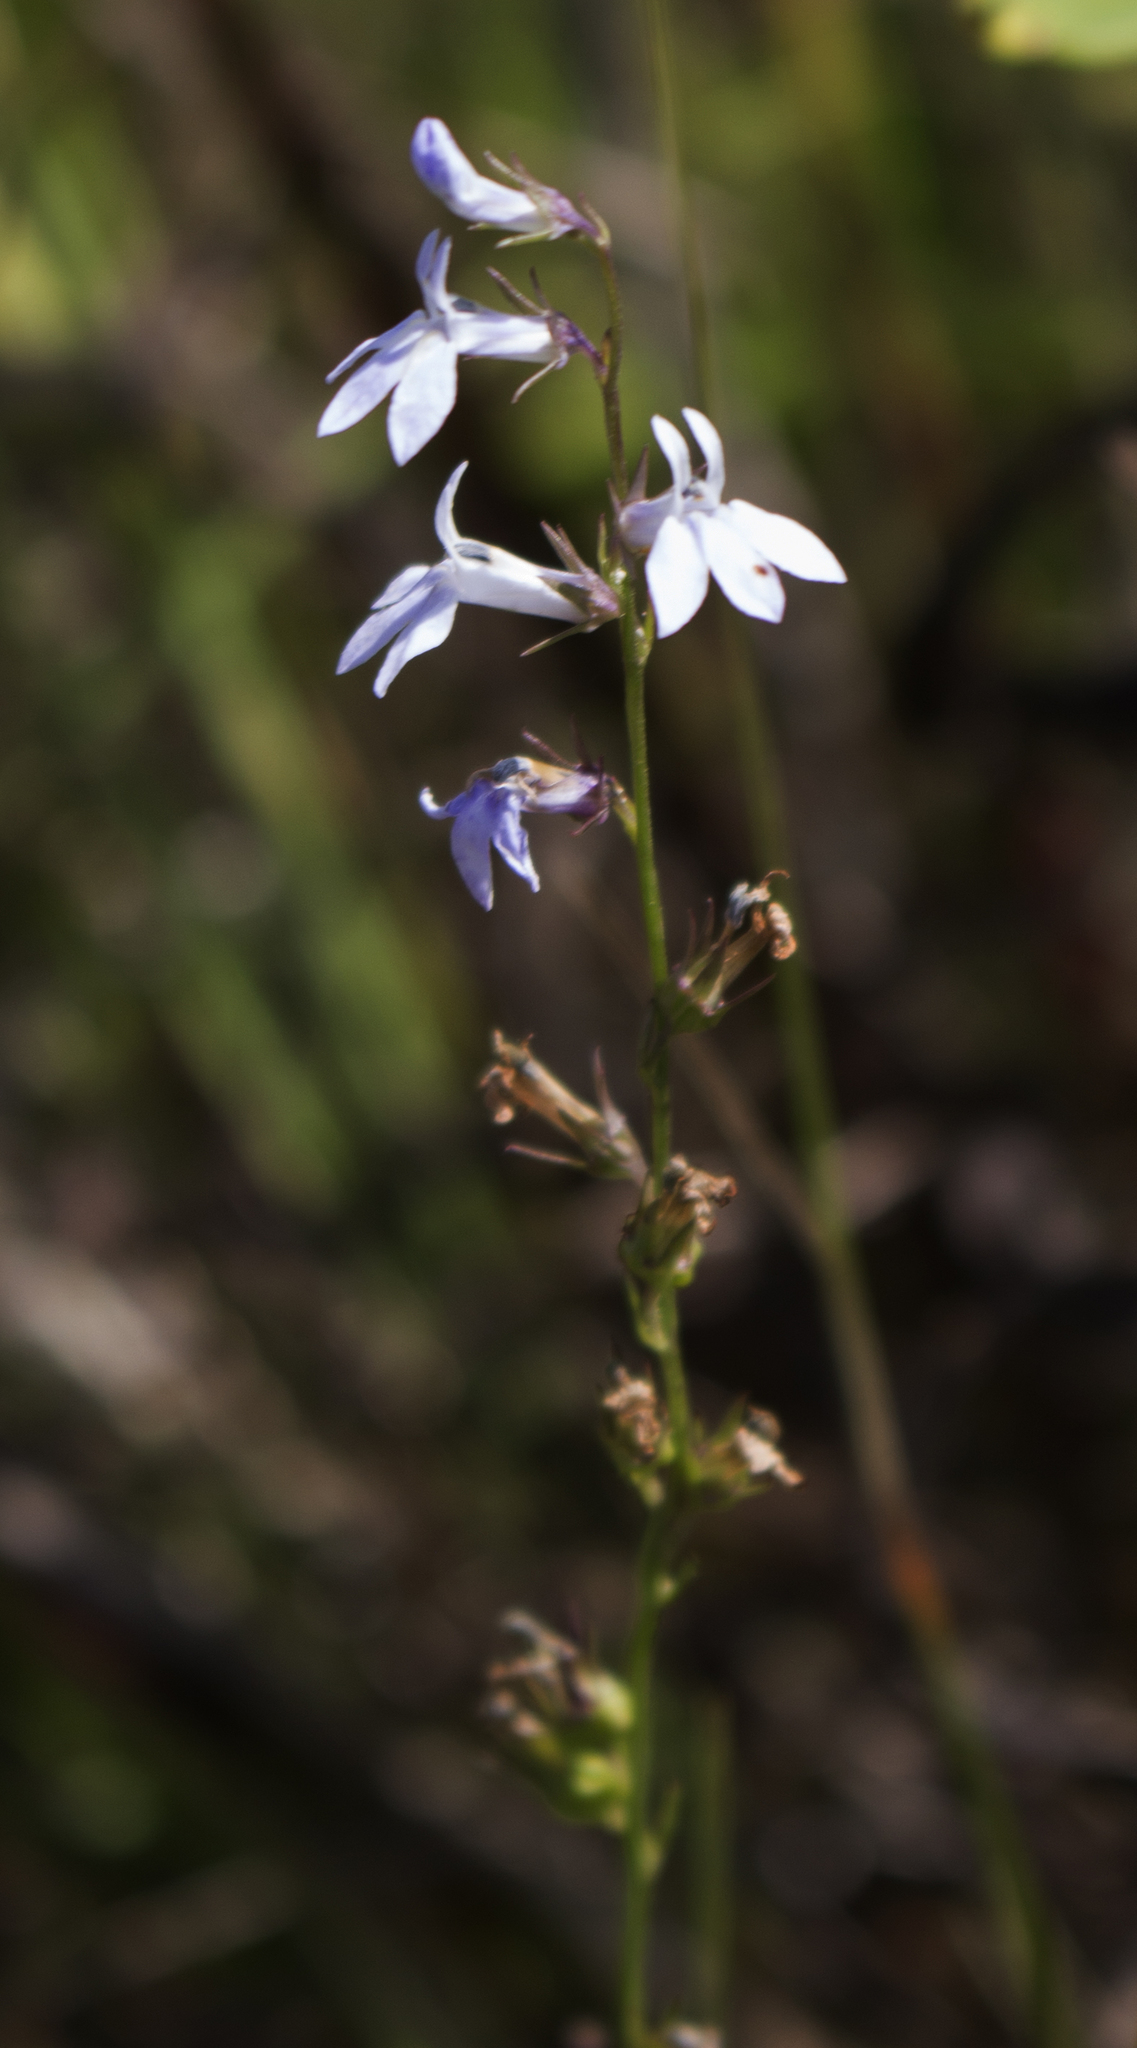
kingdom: Plantae
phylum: Tracheophyta
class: Magnoliopsida
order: Asterales
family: Campanulaceae
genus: Lobelia
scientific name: Lobelia spicata
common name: Pale-spike lobelia
